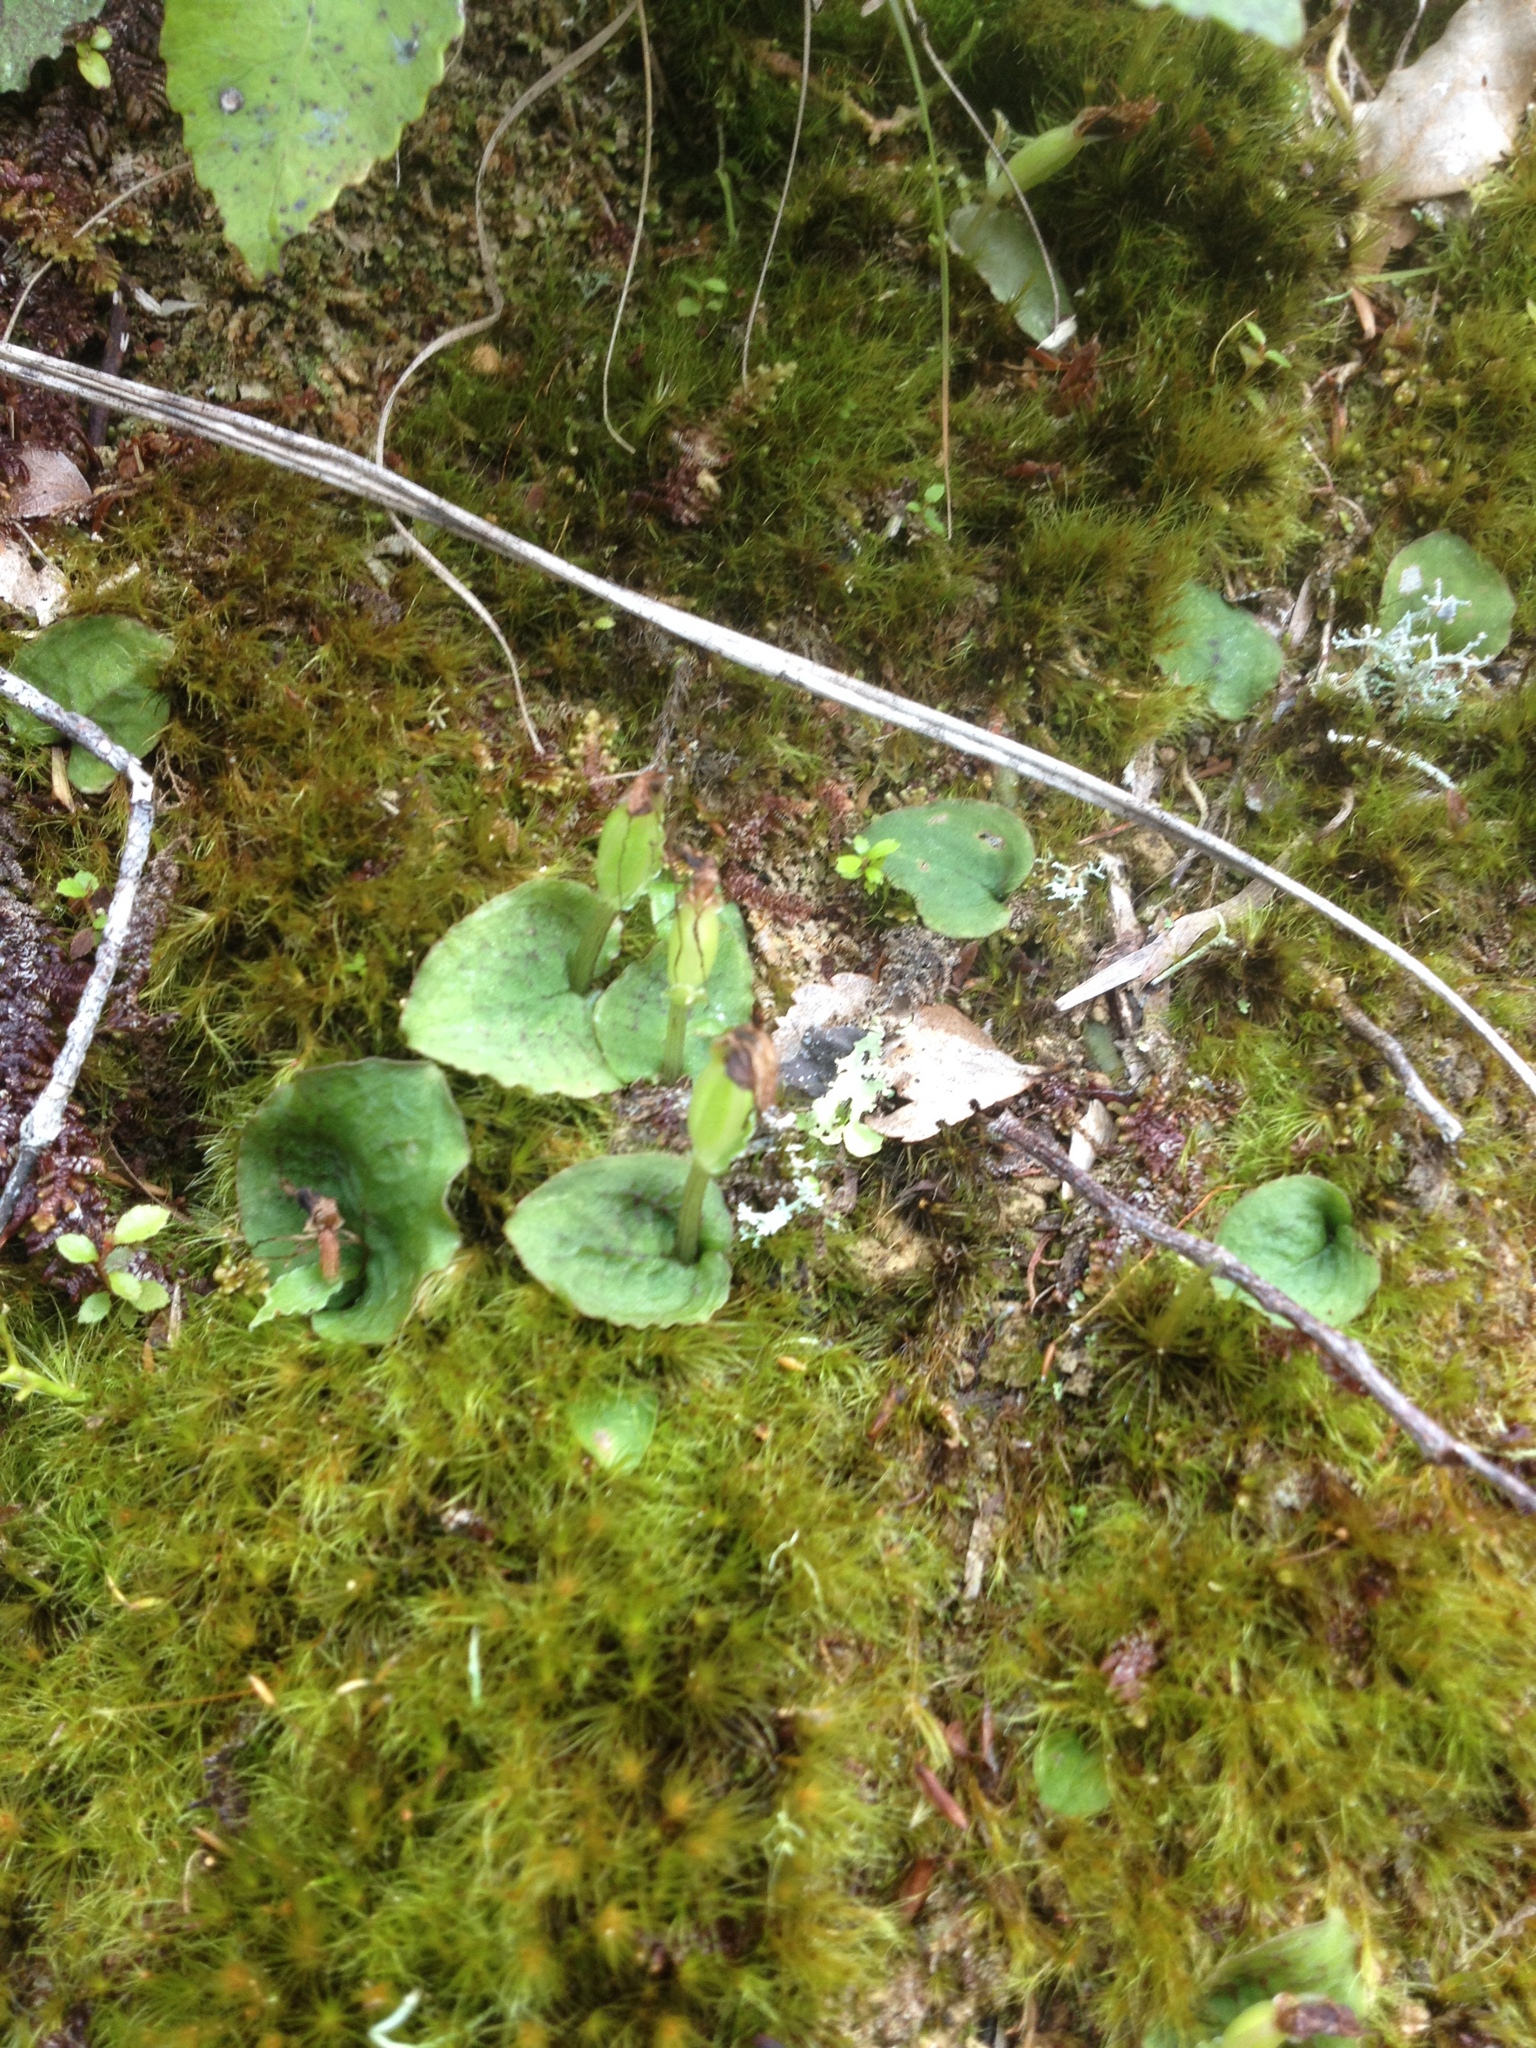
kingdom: Plantae
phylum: Tracheophyta
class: Liliopsida
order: Asparagales
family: Orchidaceae
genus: Corybas
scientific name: Corybas oblongus
